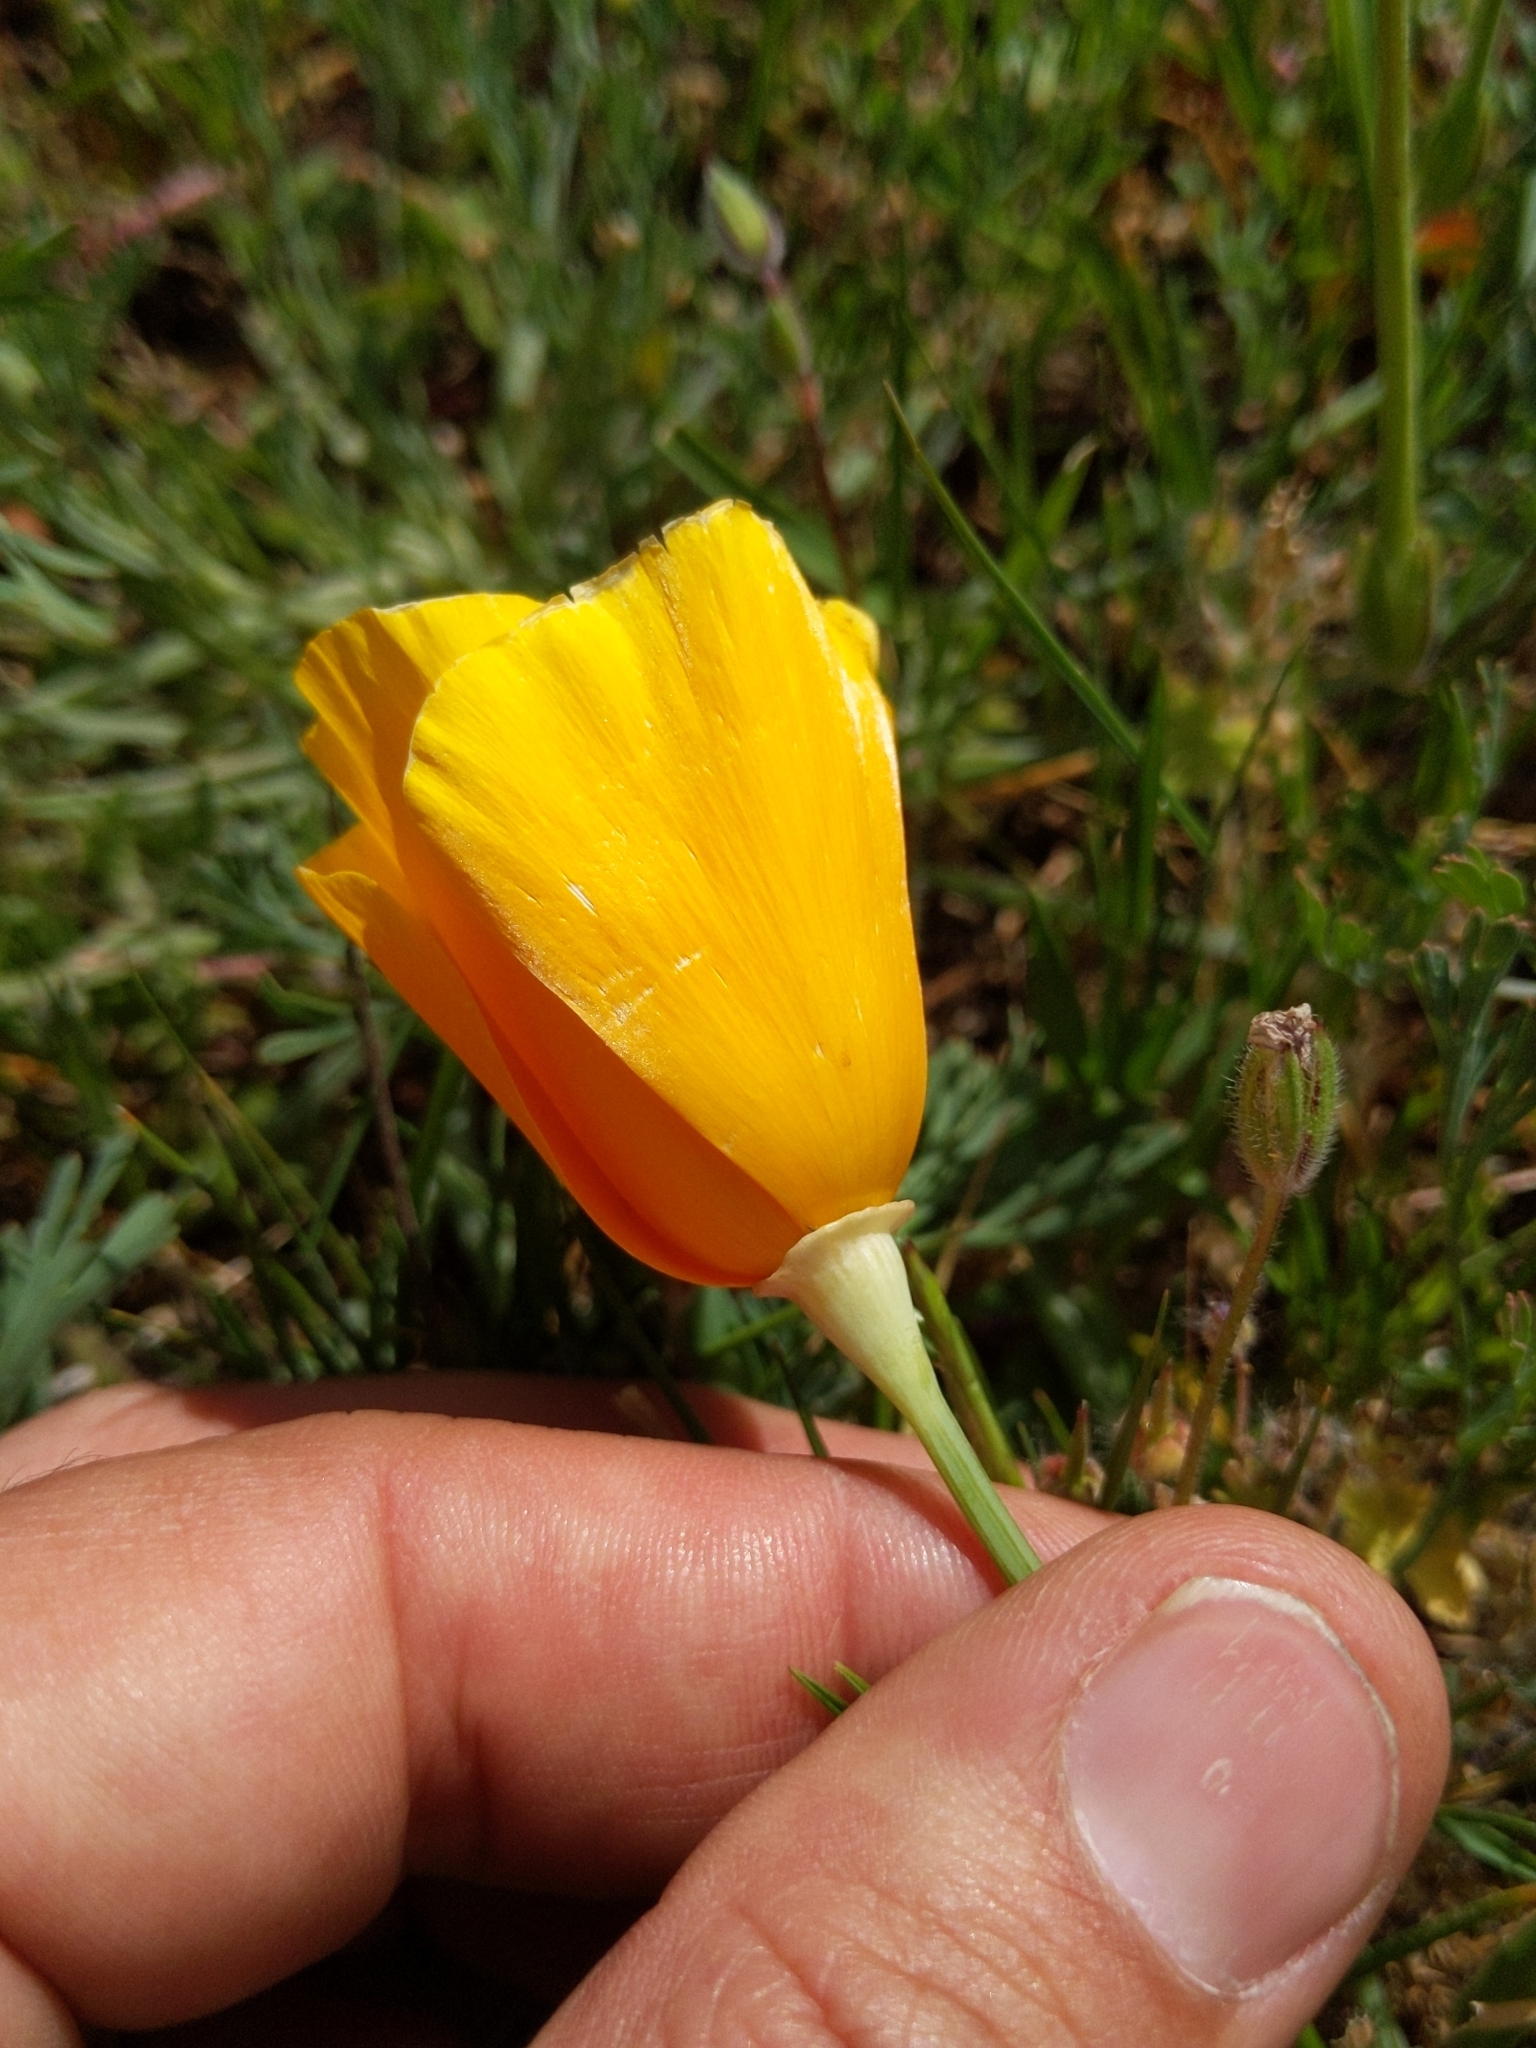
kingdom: Plantae
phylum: Tracheophyta
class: Magnoliopsida
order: Ranunculales
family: Papaveraceae
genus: Eschscholzia
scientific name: Eschscholzia californica
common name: California poppy
